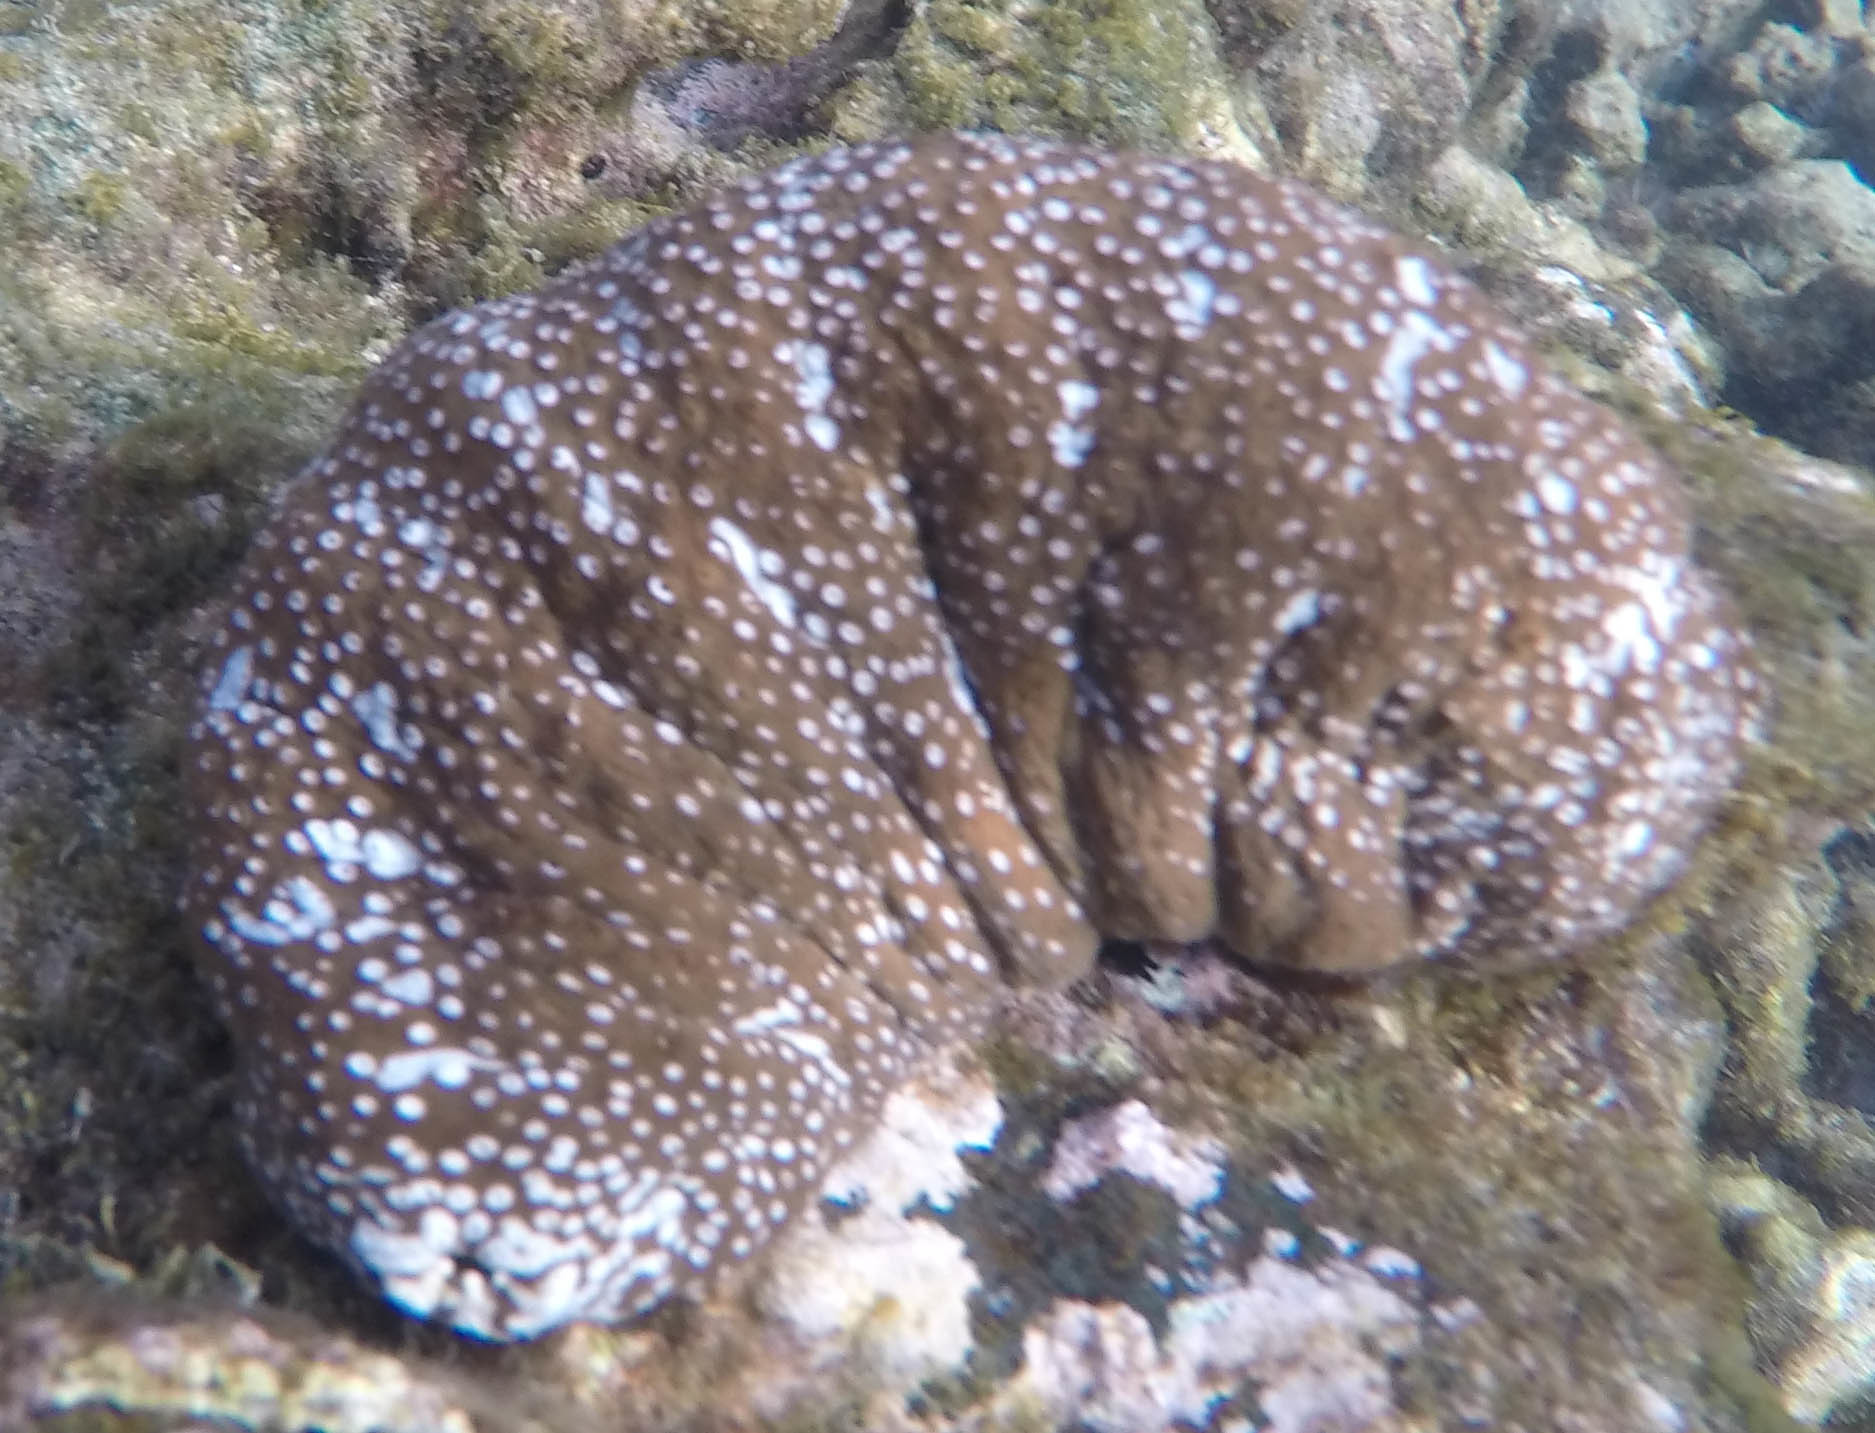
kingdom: Animalia
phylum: Echinodermata
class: Holothuroidea
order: Holothuriida
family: Holothuriidae
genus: Actinopyga
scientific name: Actinopyga varians
